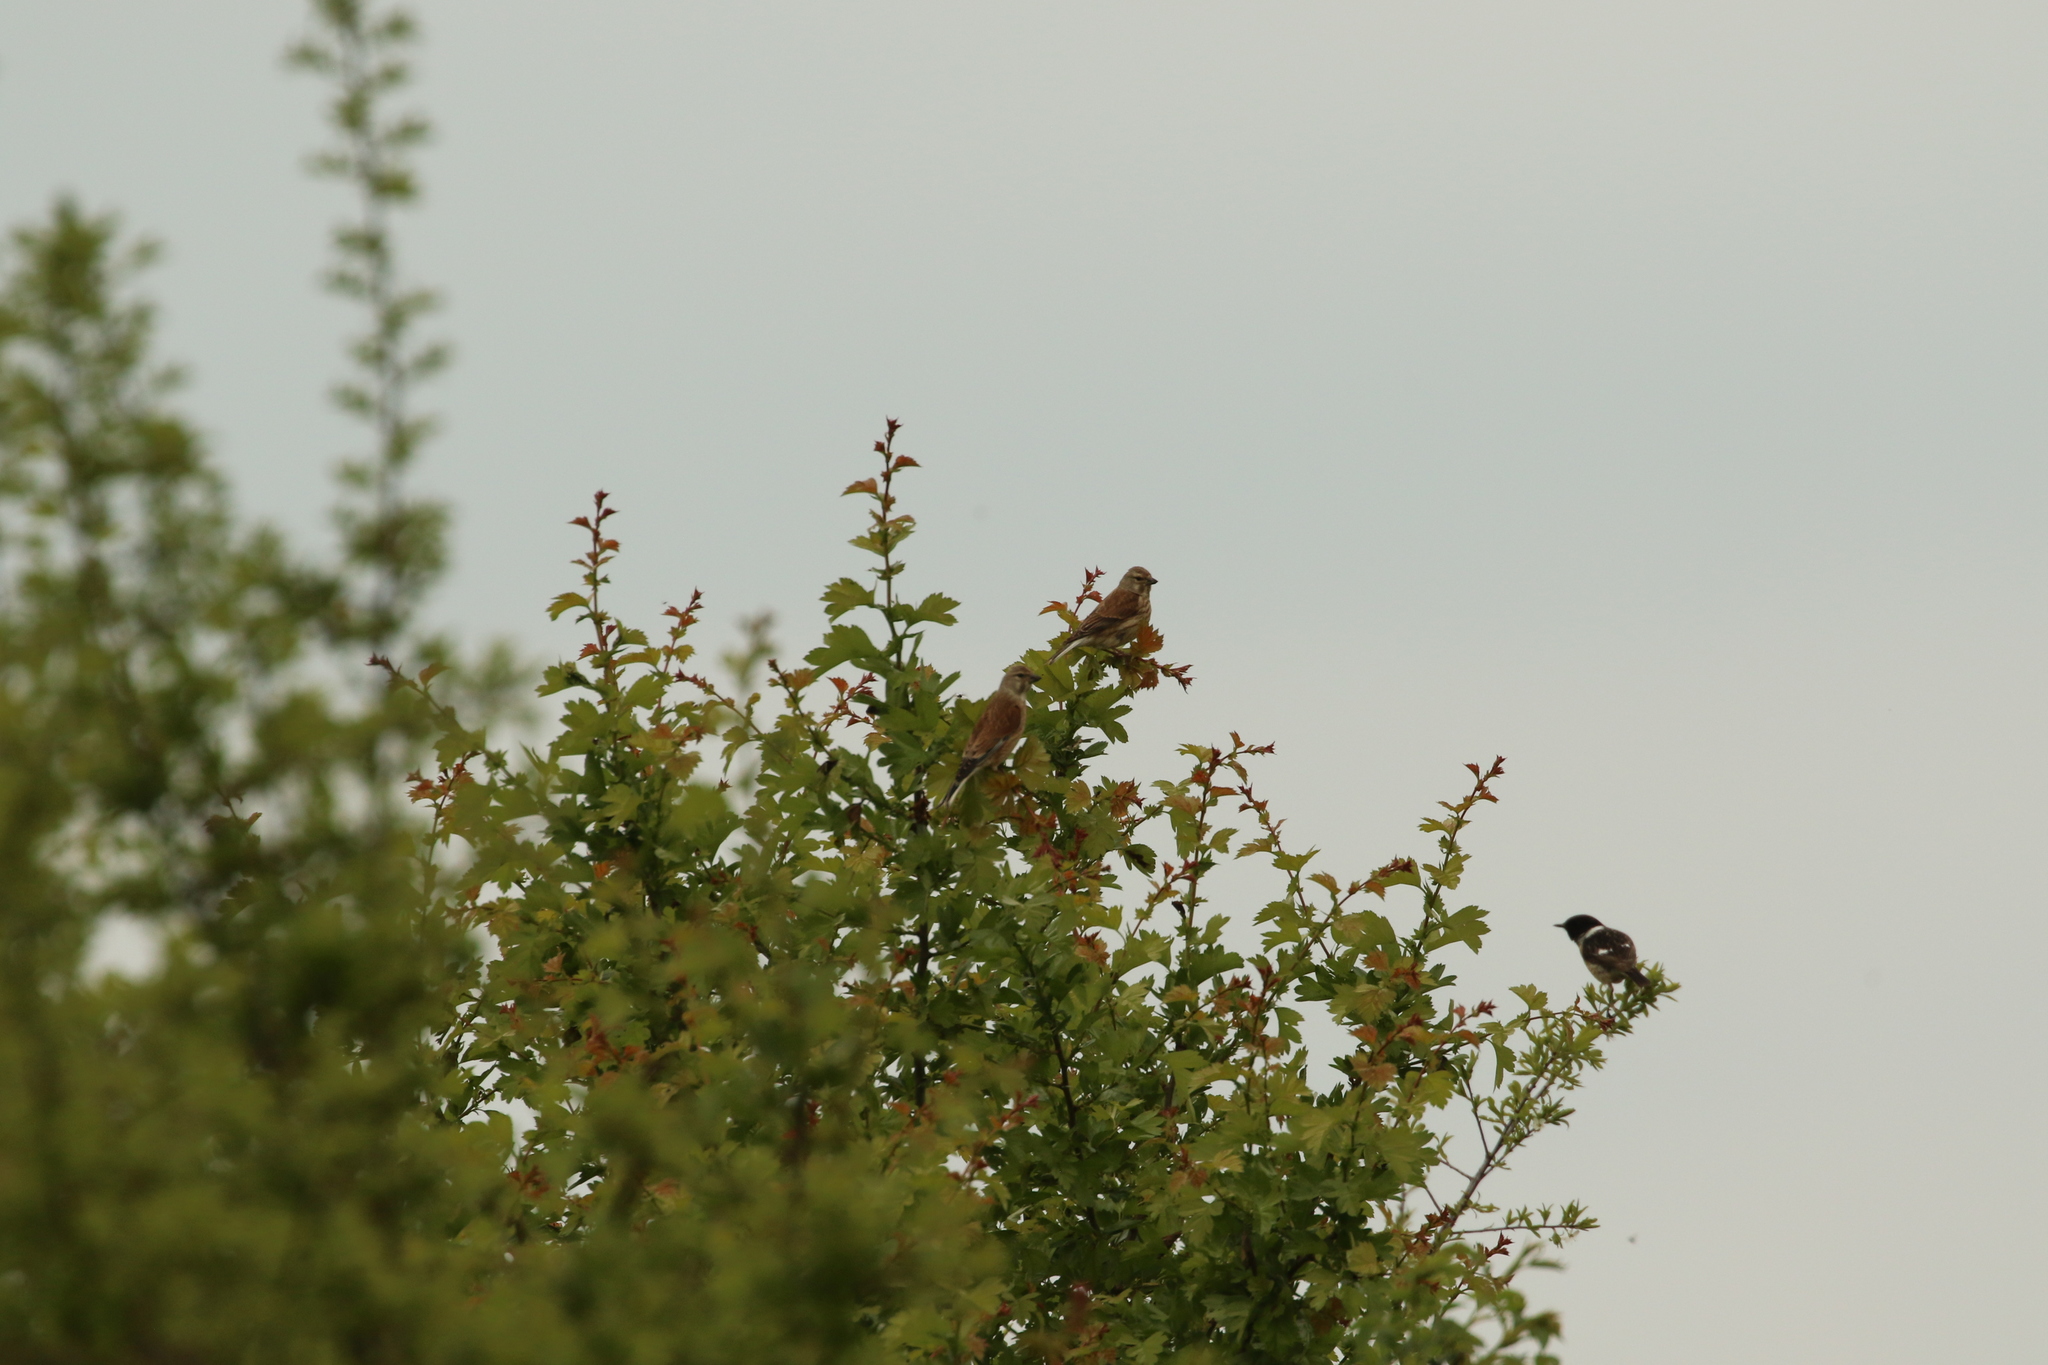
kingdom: Animalia
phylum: Chordata
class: Aves
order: Passeriformes
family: Fringillidae
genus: Linaria
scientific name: Linaria cannabina
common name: Common linnet
